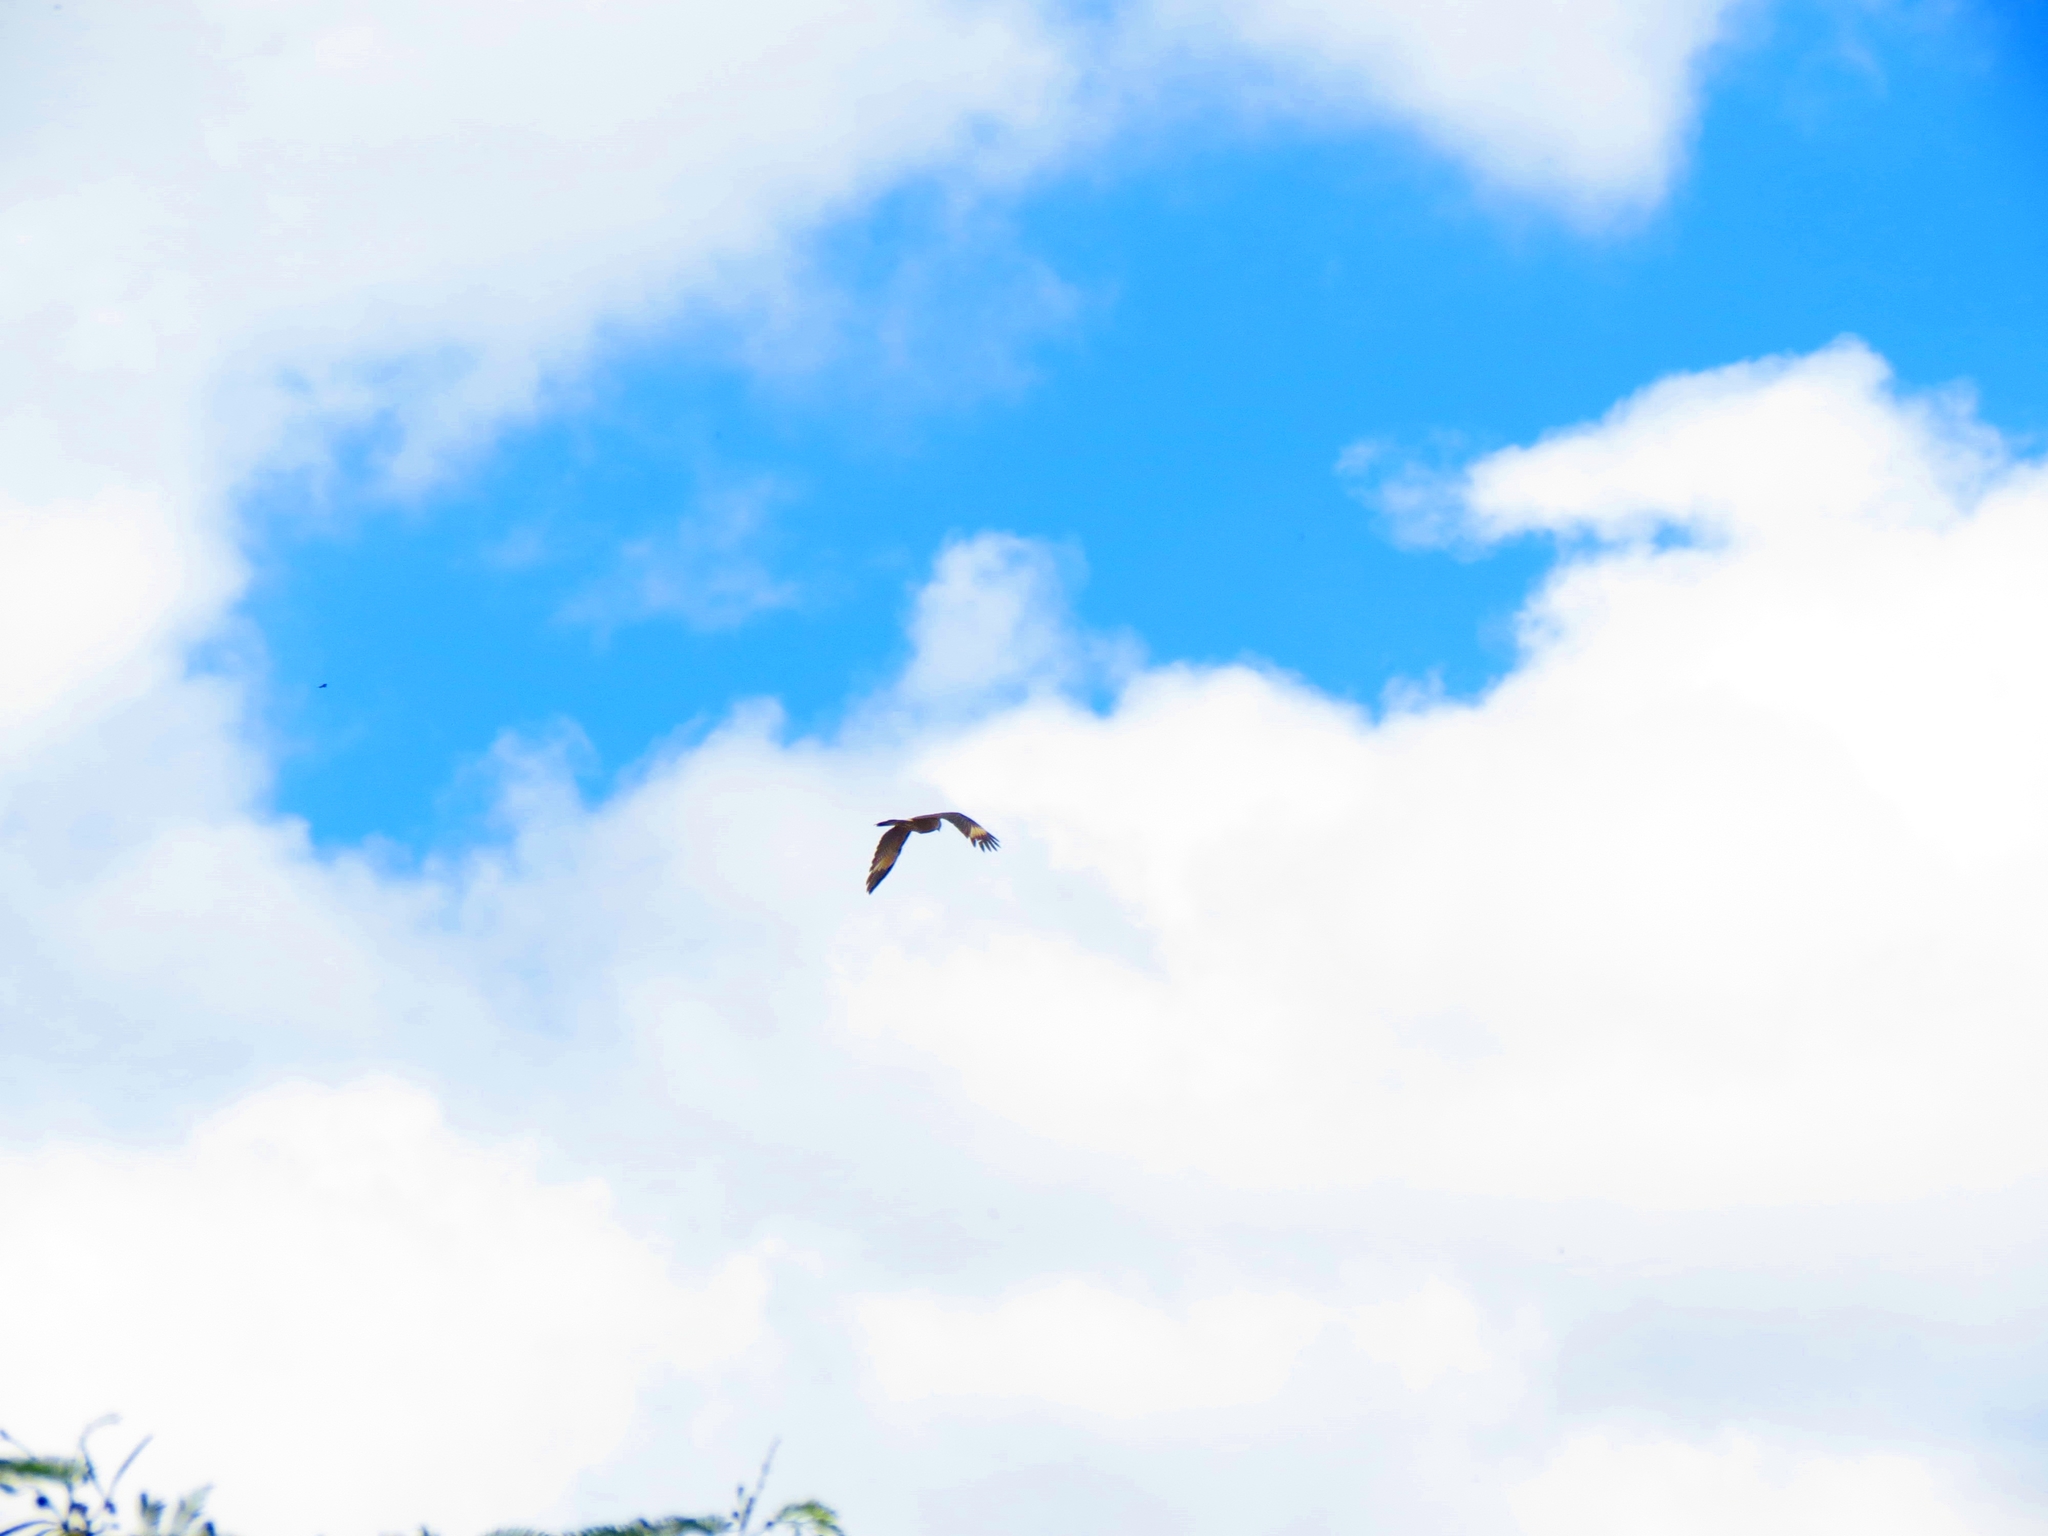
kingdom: Animalia
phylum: Chordata
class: Aves
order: Falconiformes
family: Falconidae
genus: Daptrius
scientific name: Daptrius
